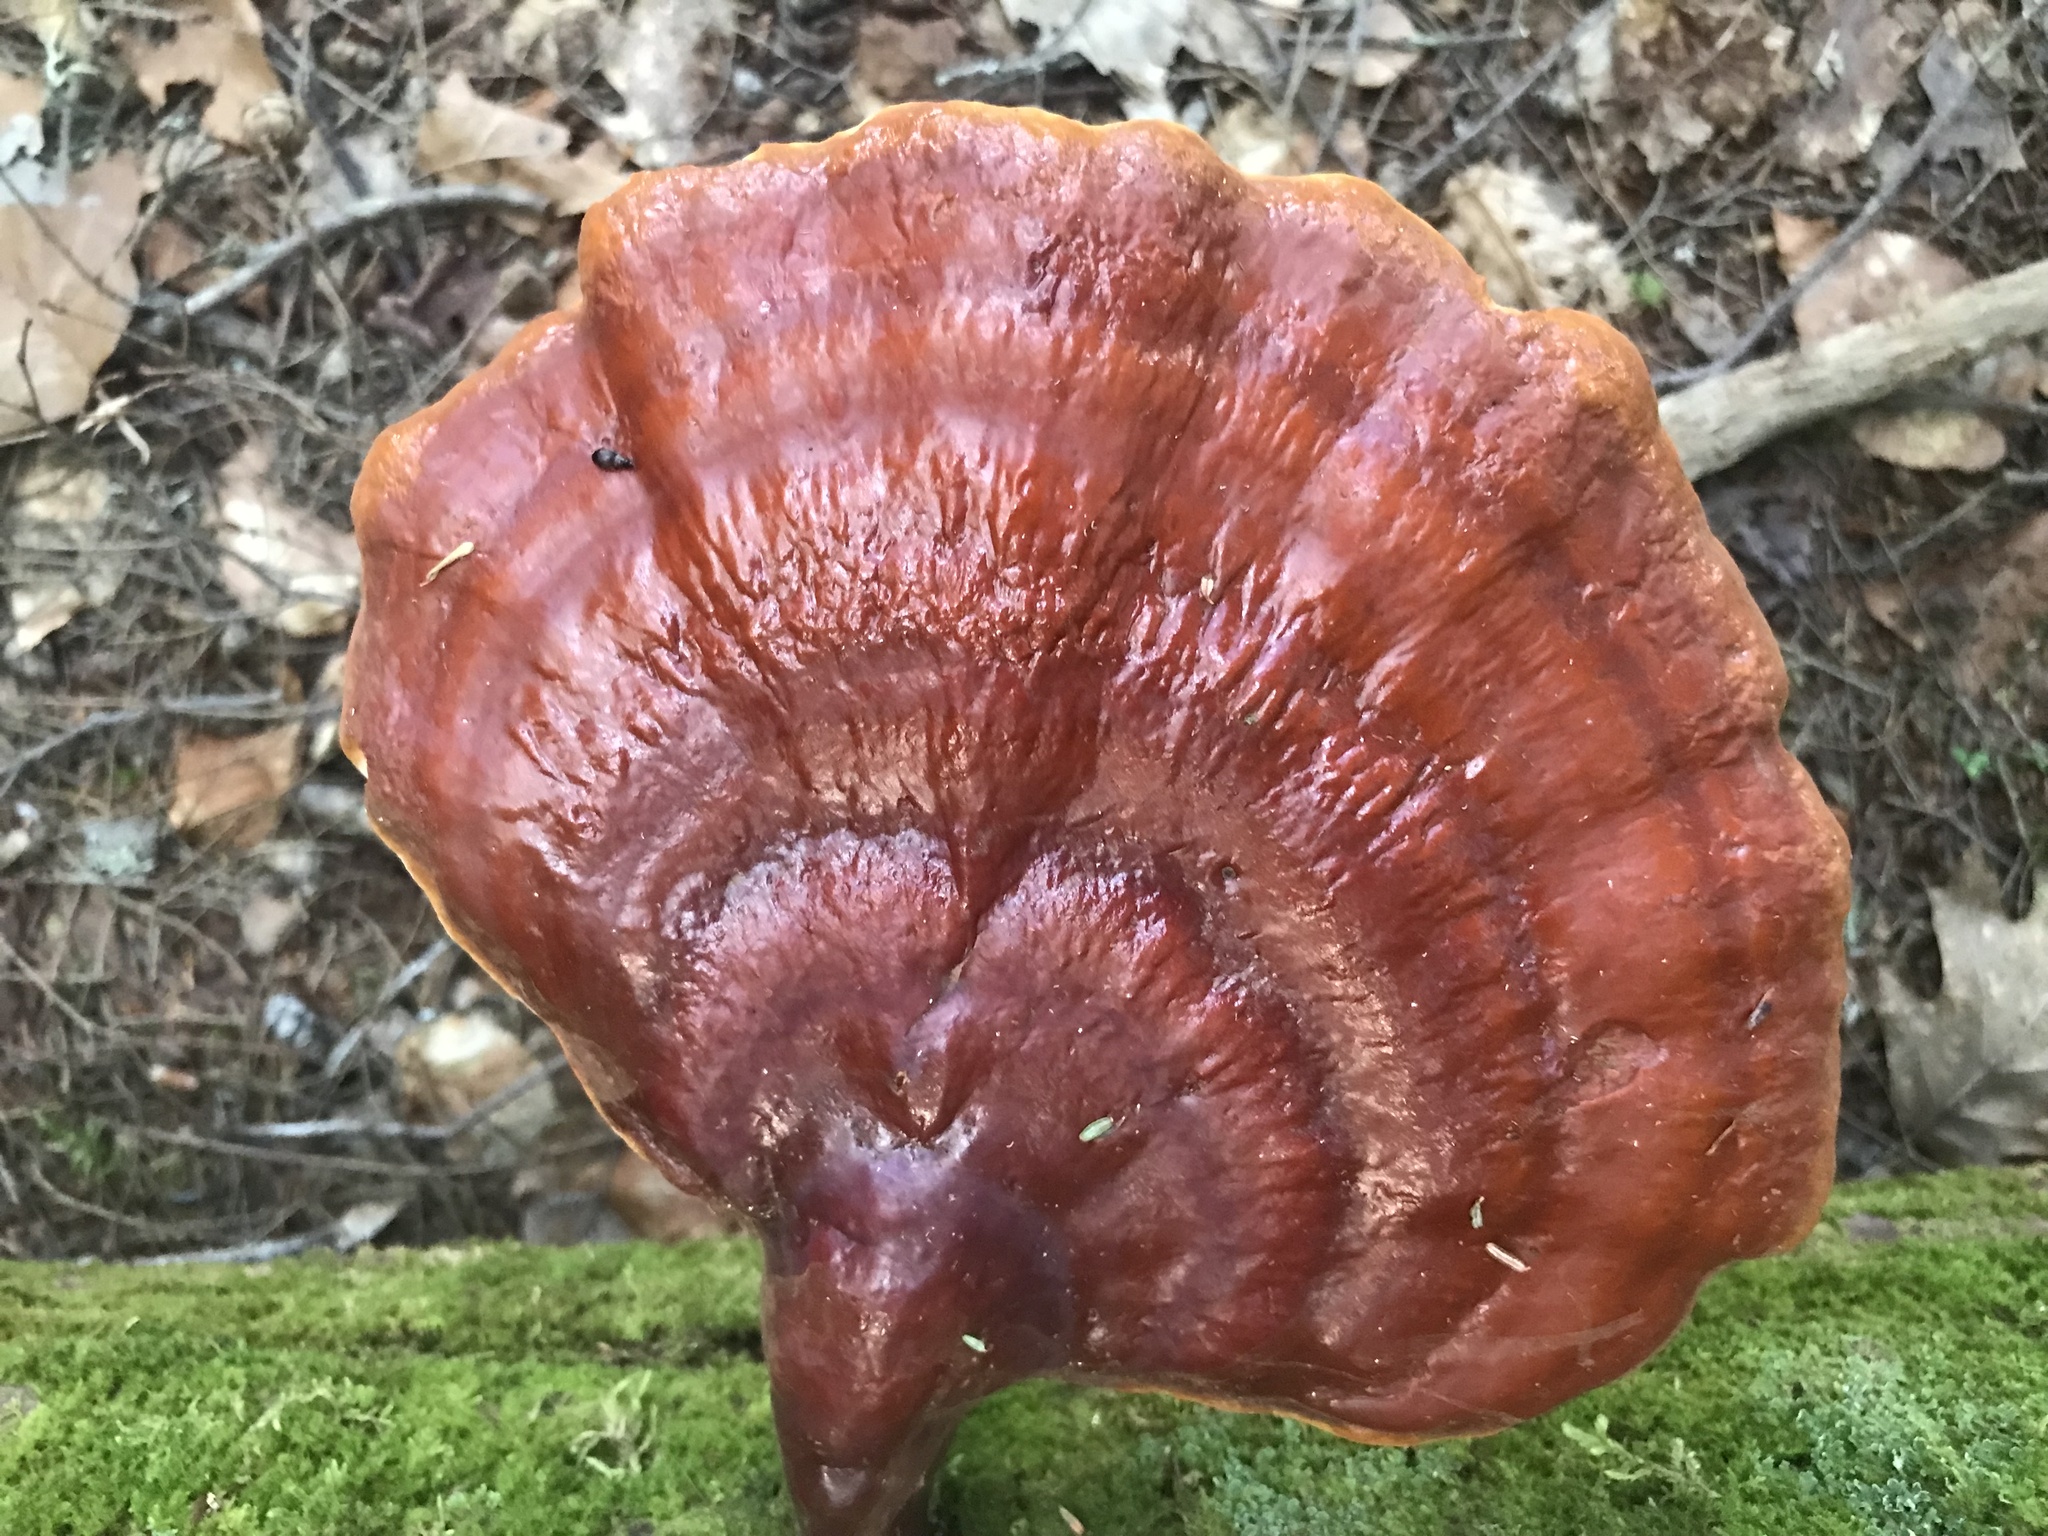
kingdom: Fungi
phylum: Basidiomycota
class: Agaricomycetes
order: Polyporales
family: Polyporaceae
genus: Ganoderma
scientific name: Ganoderma tsugae
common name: Hemlock varnish shelf
